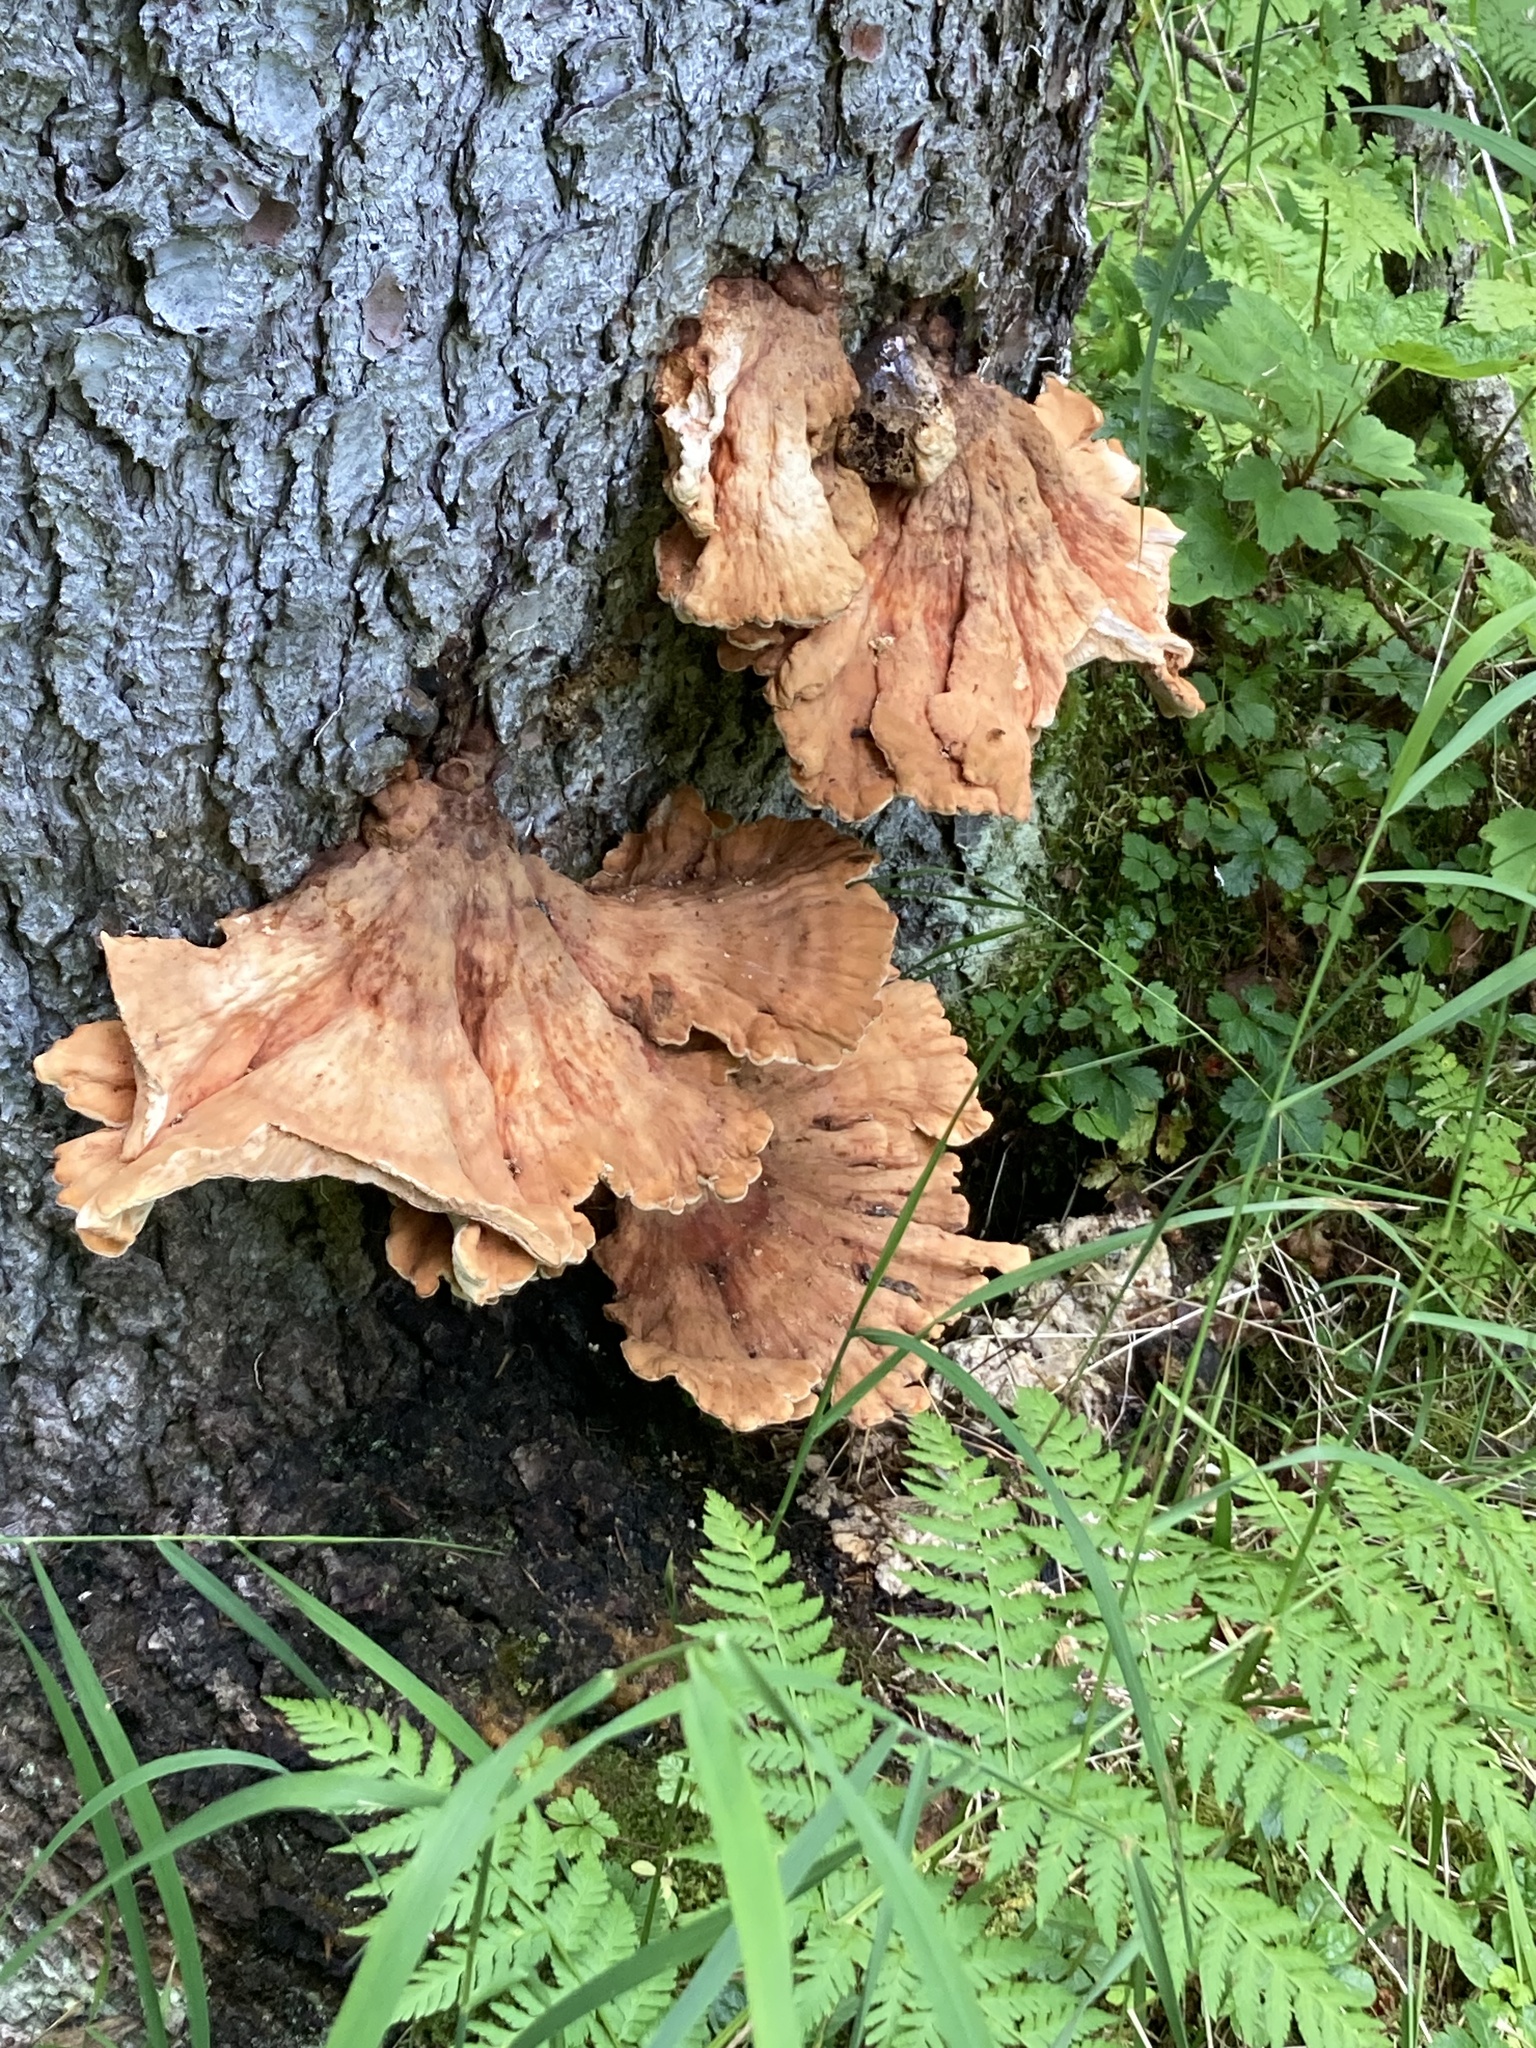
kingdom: Fungi
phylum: Basidiomycota
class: Agaricomycetes
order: Polyporales
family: Laetiporaceae
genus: Laetiporus
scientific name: Laetiporus conifericola
